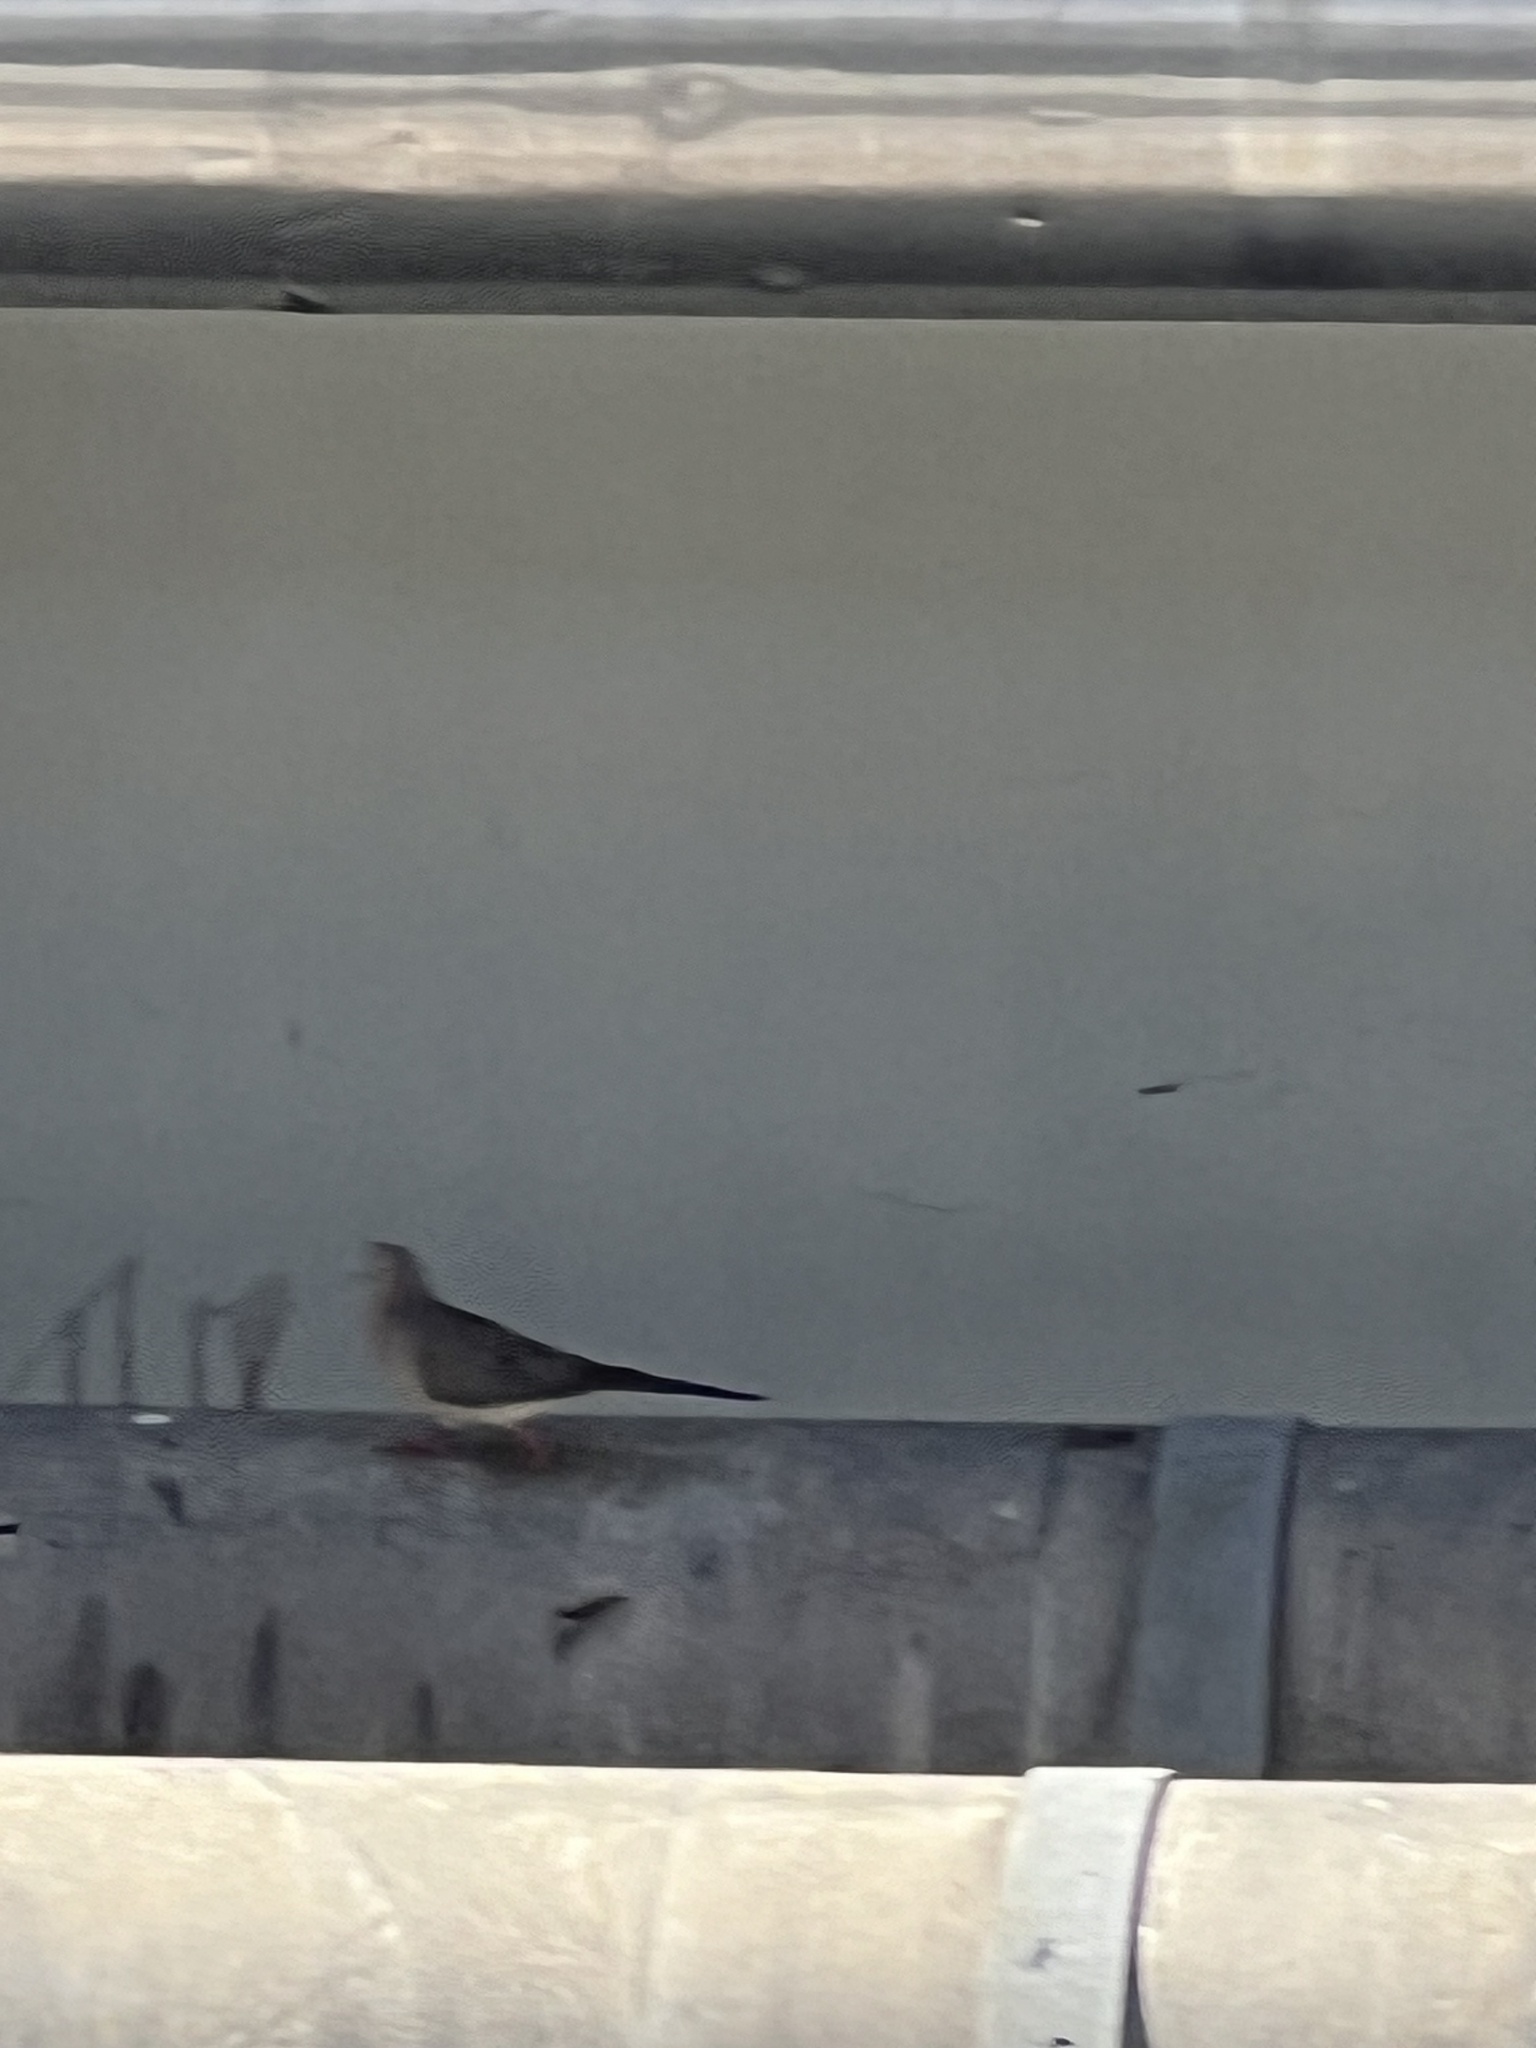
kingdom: Animalia
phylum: Chordata
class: Aves
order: Columbiformes
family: Columbidae
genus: Zenaida
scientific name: Zenaida macroura
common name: Mourning dove
